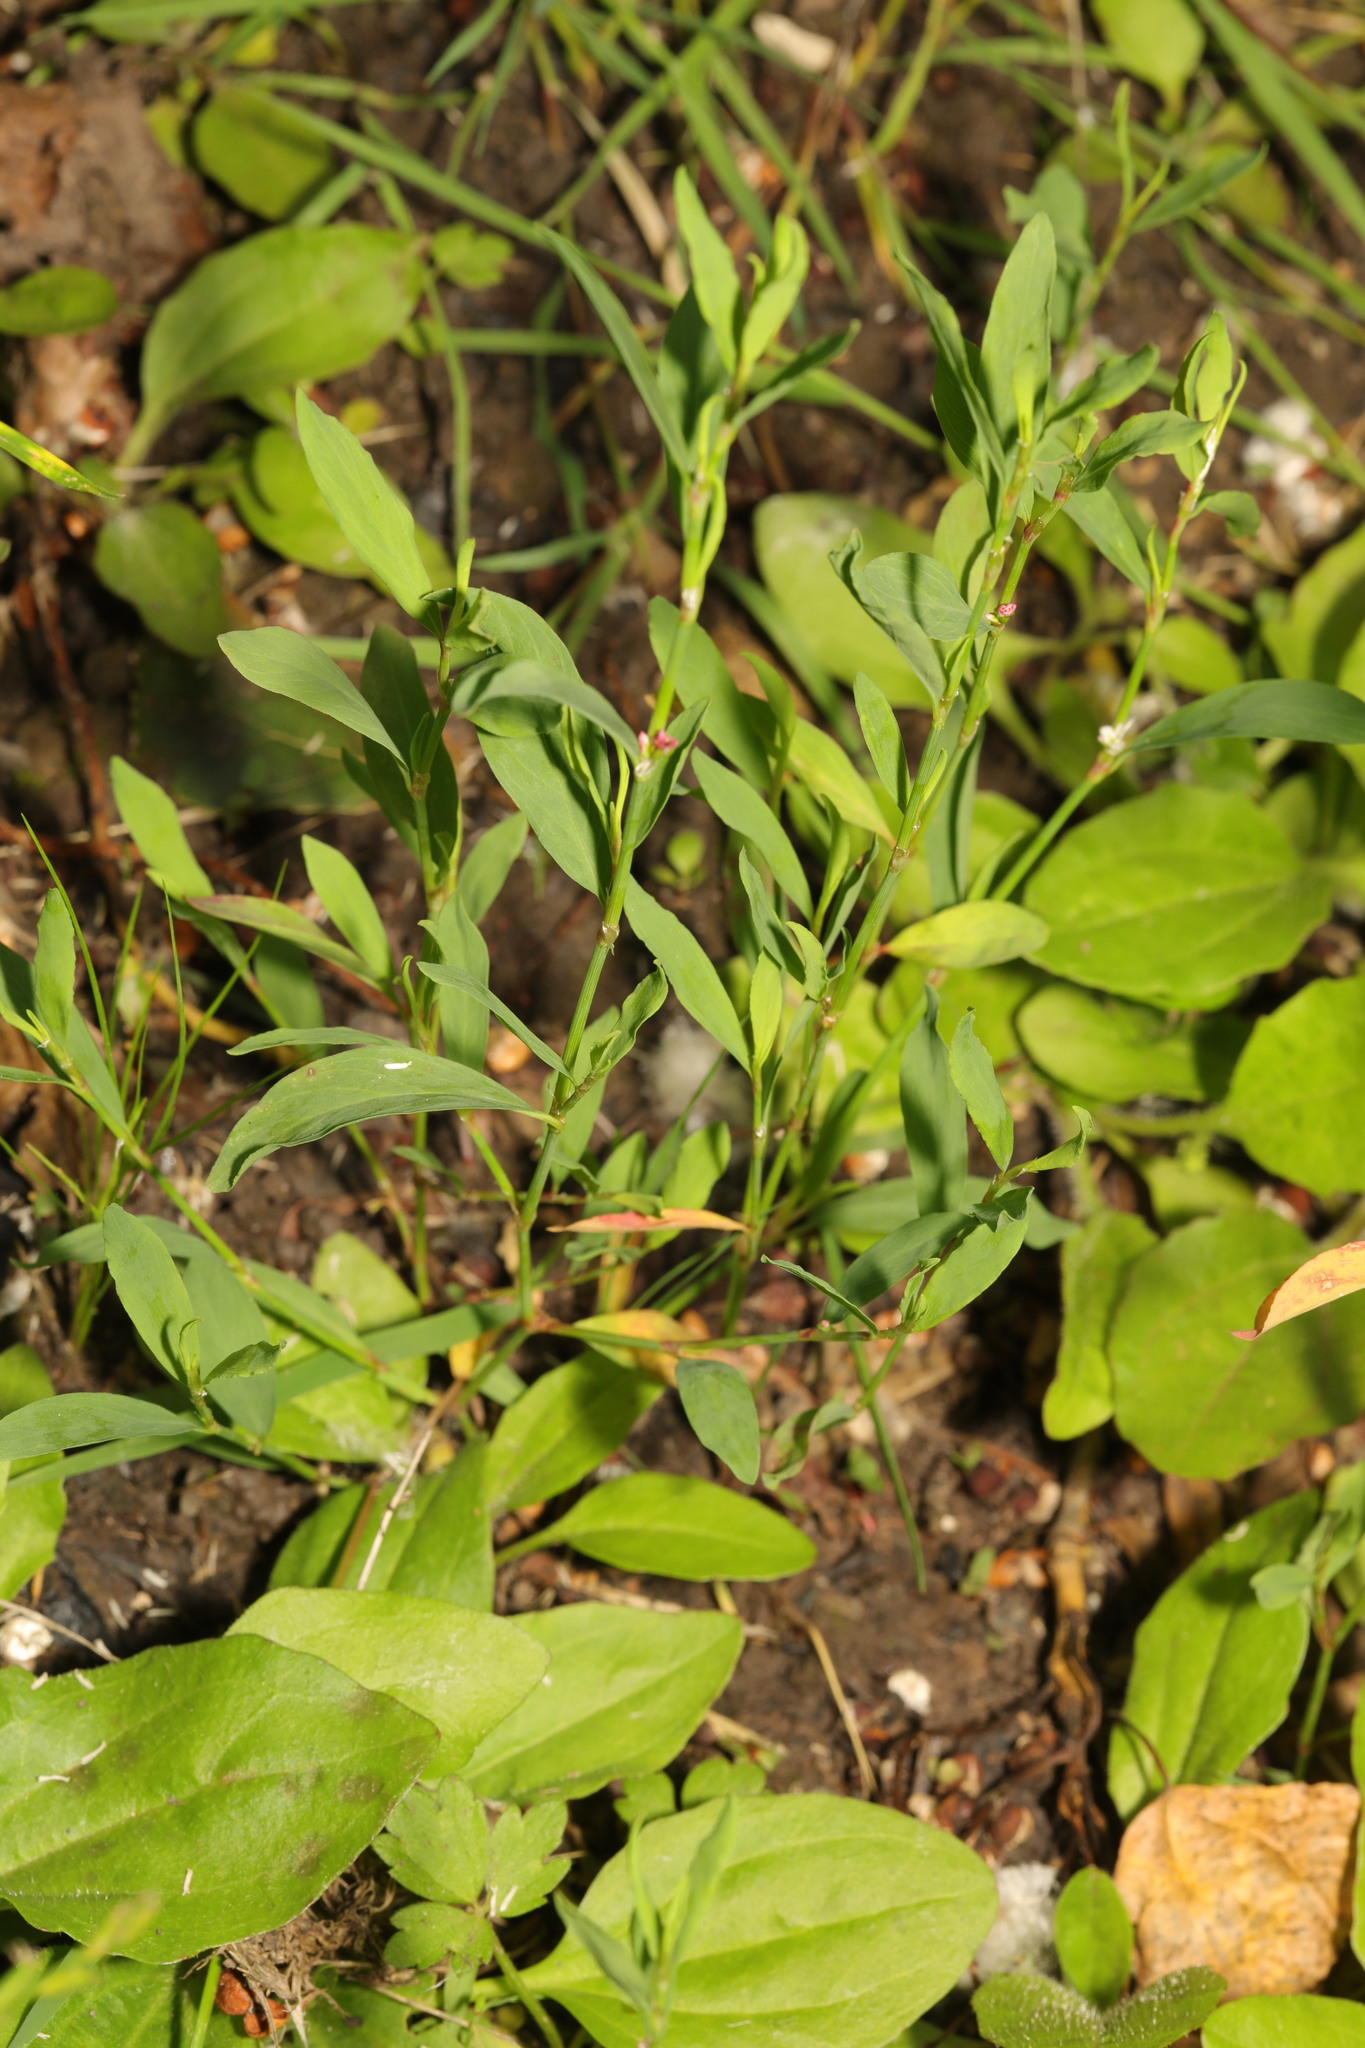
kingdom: Plantae
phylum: Tracheophyta
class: Magnoliopsida
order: Caryophyllales
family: Polygonaceae
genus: Polygonum
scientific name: Polygonum aviculare
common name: Prostrate knotweed
